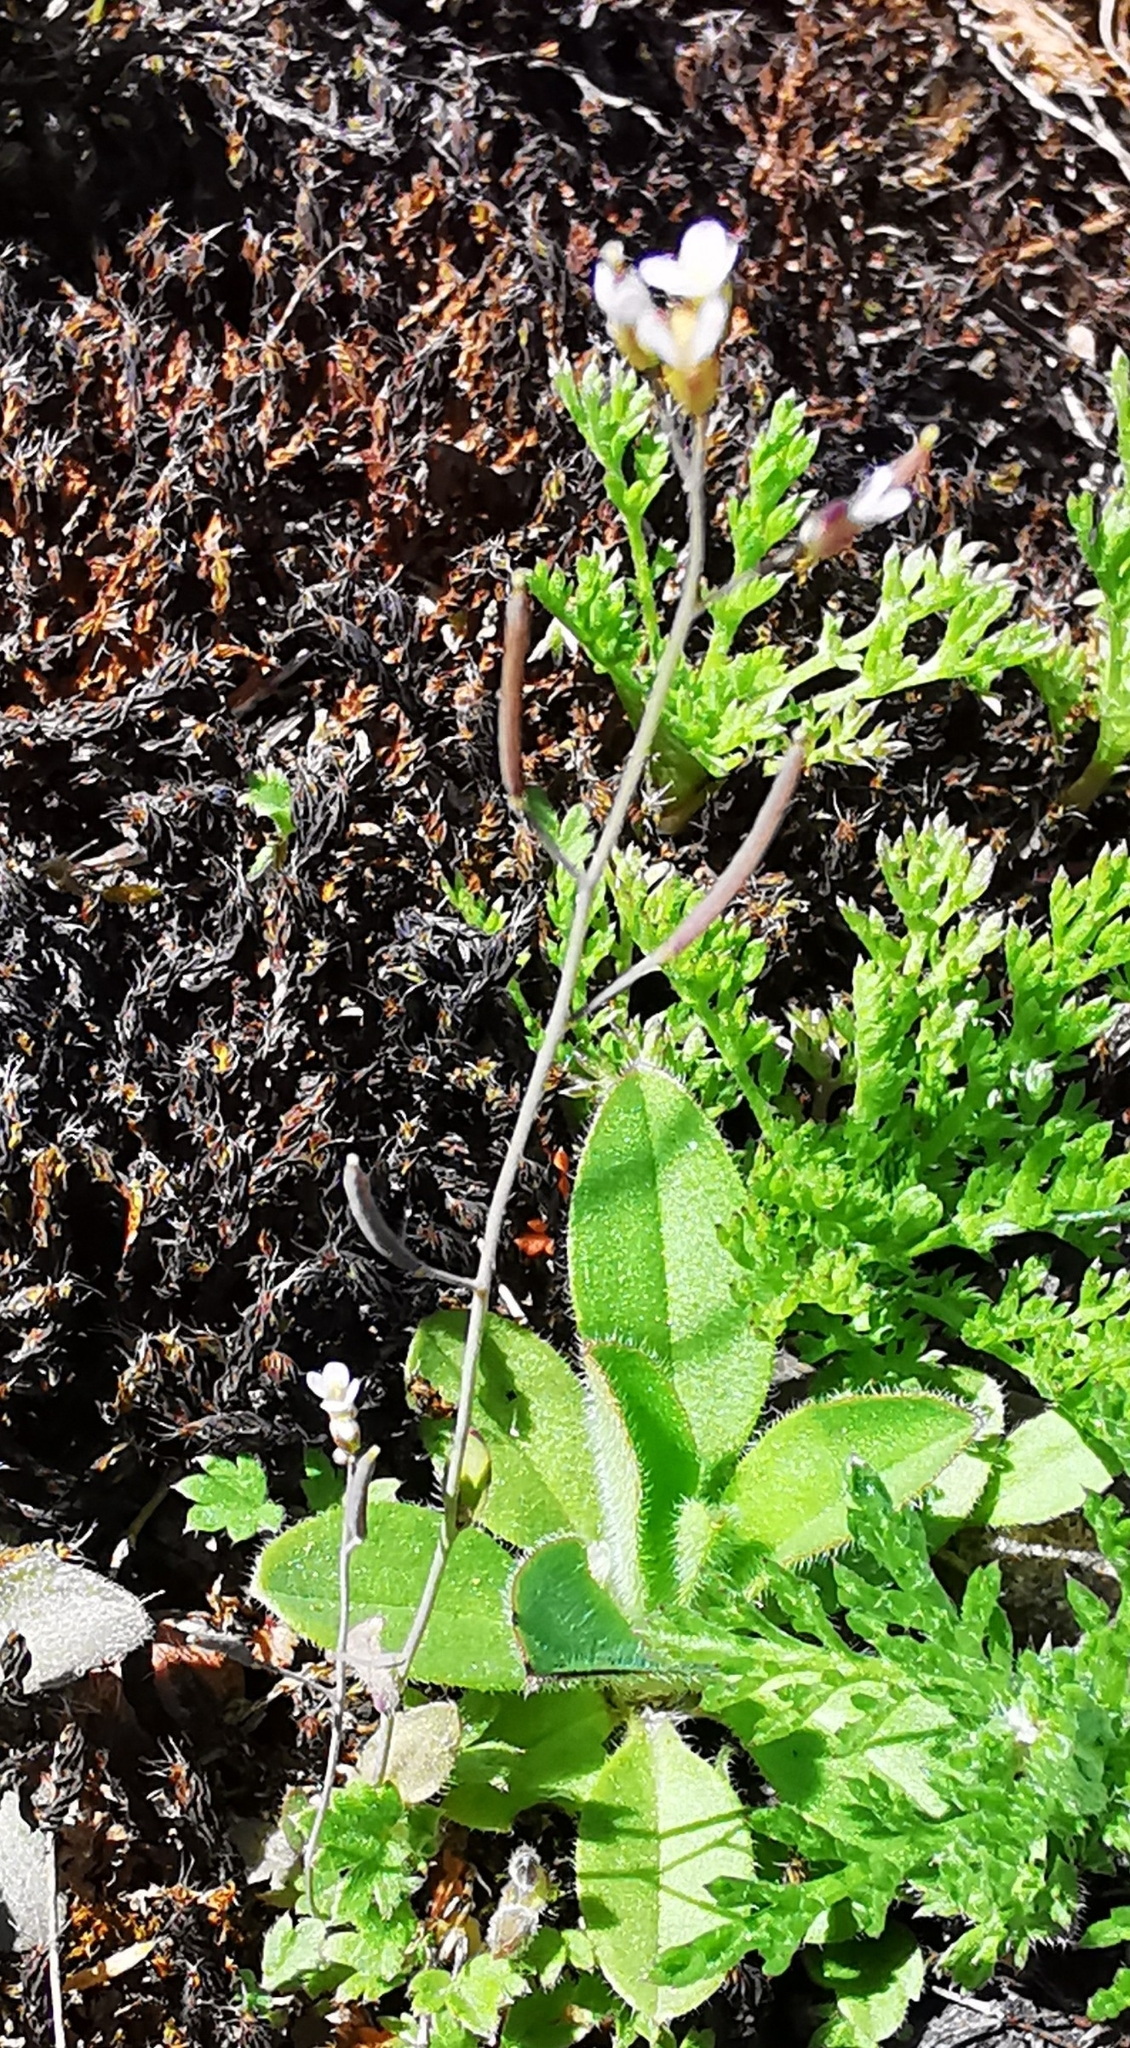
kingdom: Plantae
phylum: Tracheophyta
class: Magnoliopsida
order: Brassicales
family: Brassicaceae
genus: Arabidopsis
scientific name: Arabidopsis thaliana
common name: Thale cress
